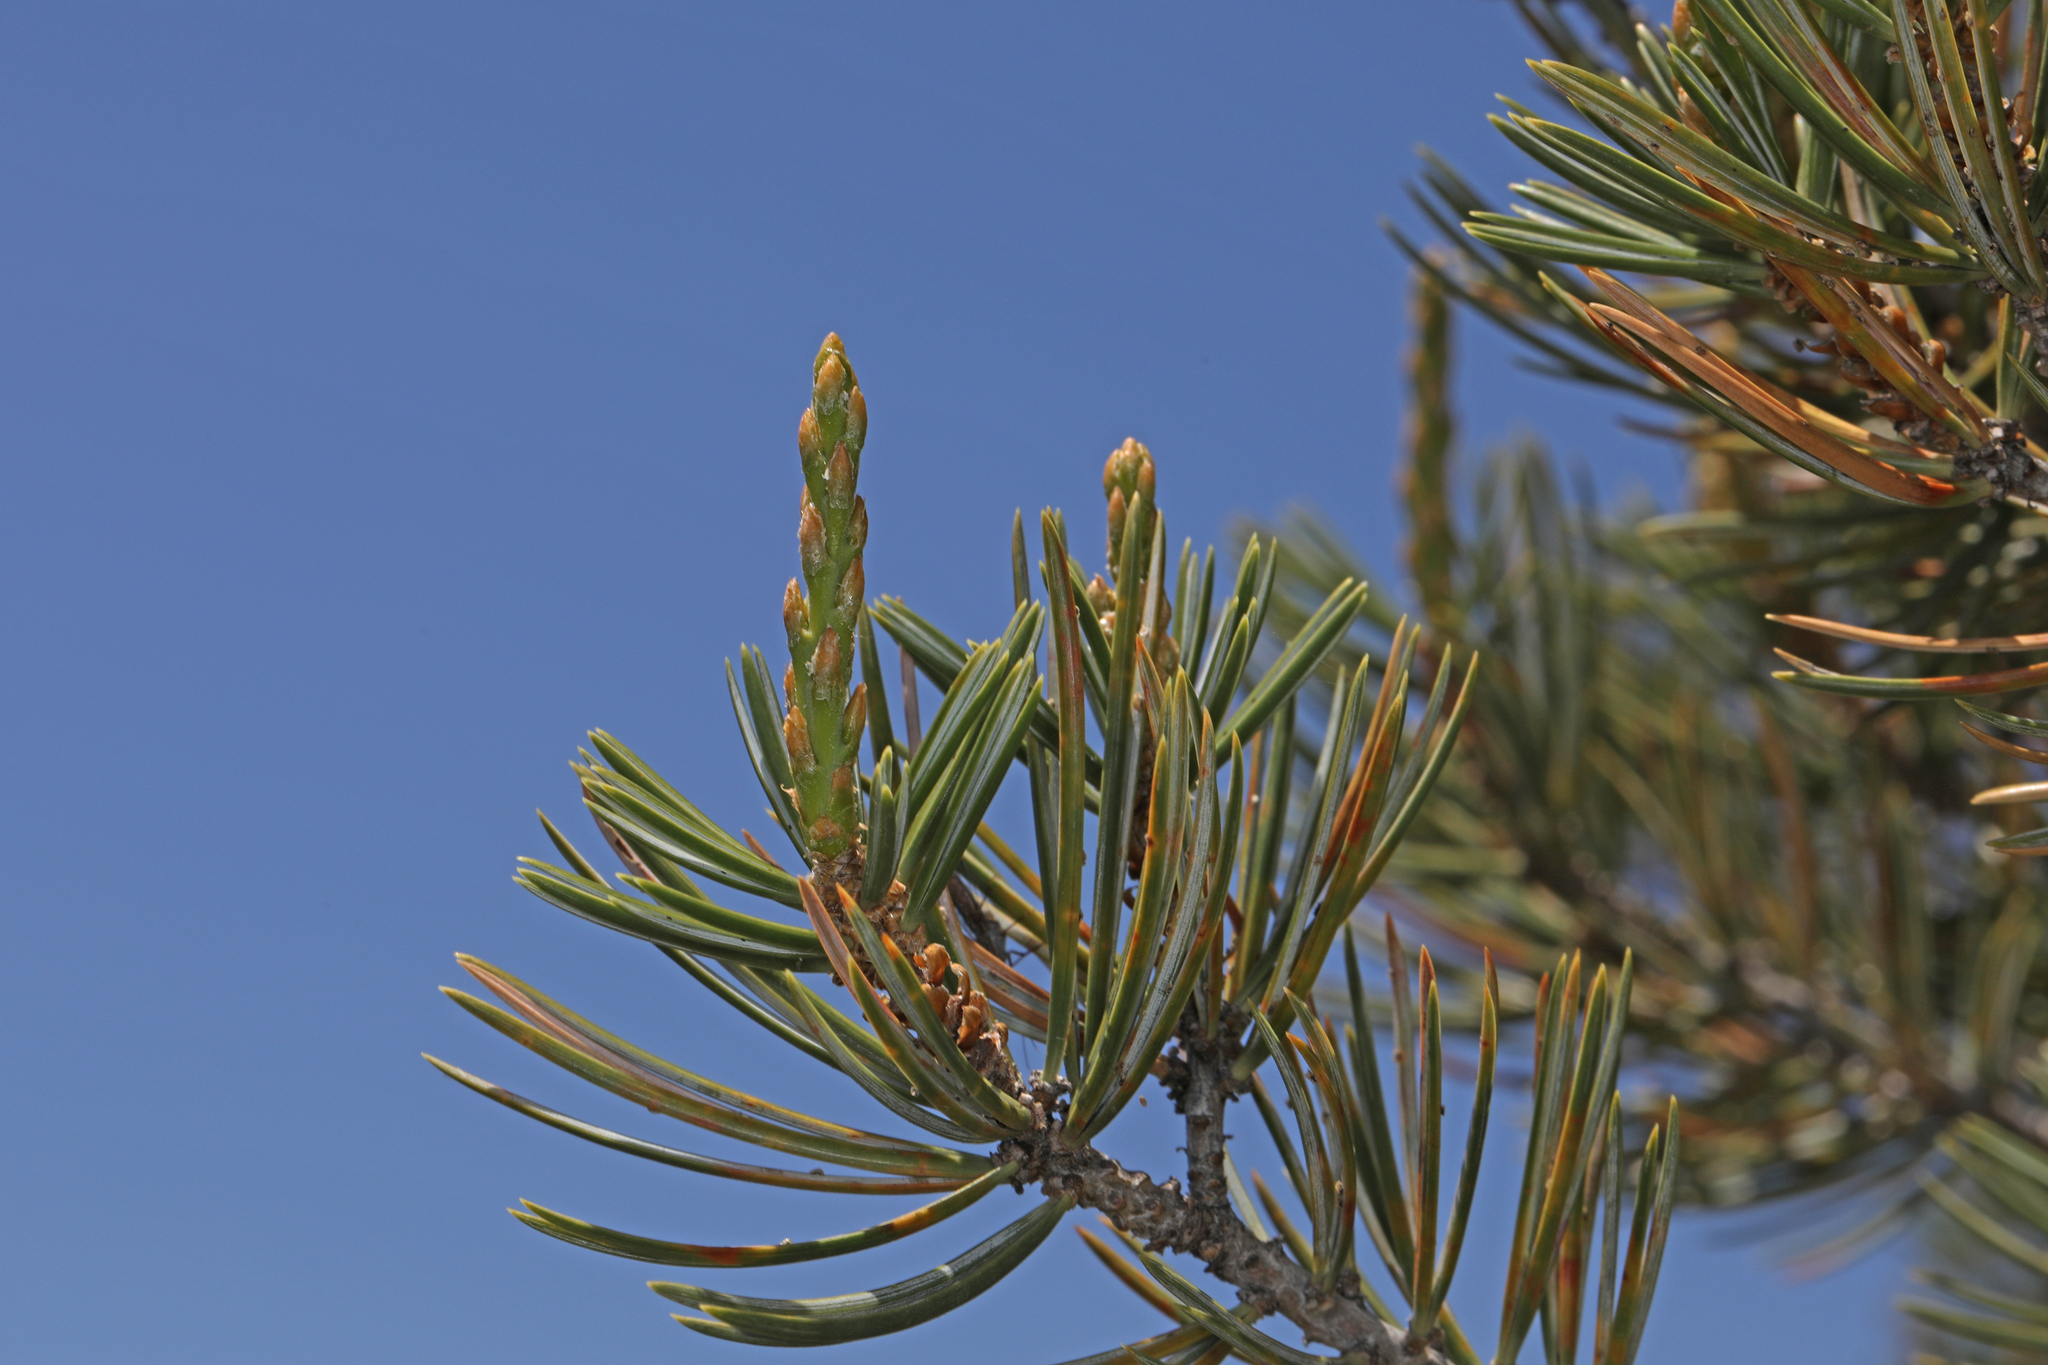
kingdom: Plantae
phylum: Tracheophyta
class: Pinopsida
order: Pinales
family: Pinaceae
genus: Pinus
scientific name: Pinus quadrifolia
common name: Parry pinyon
